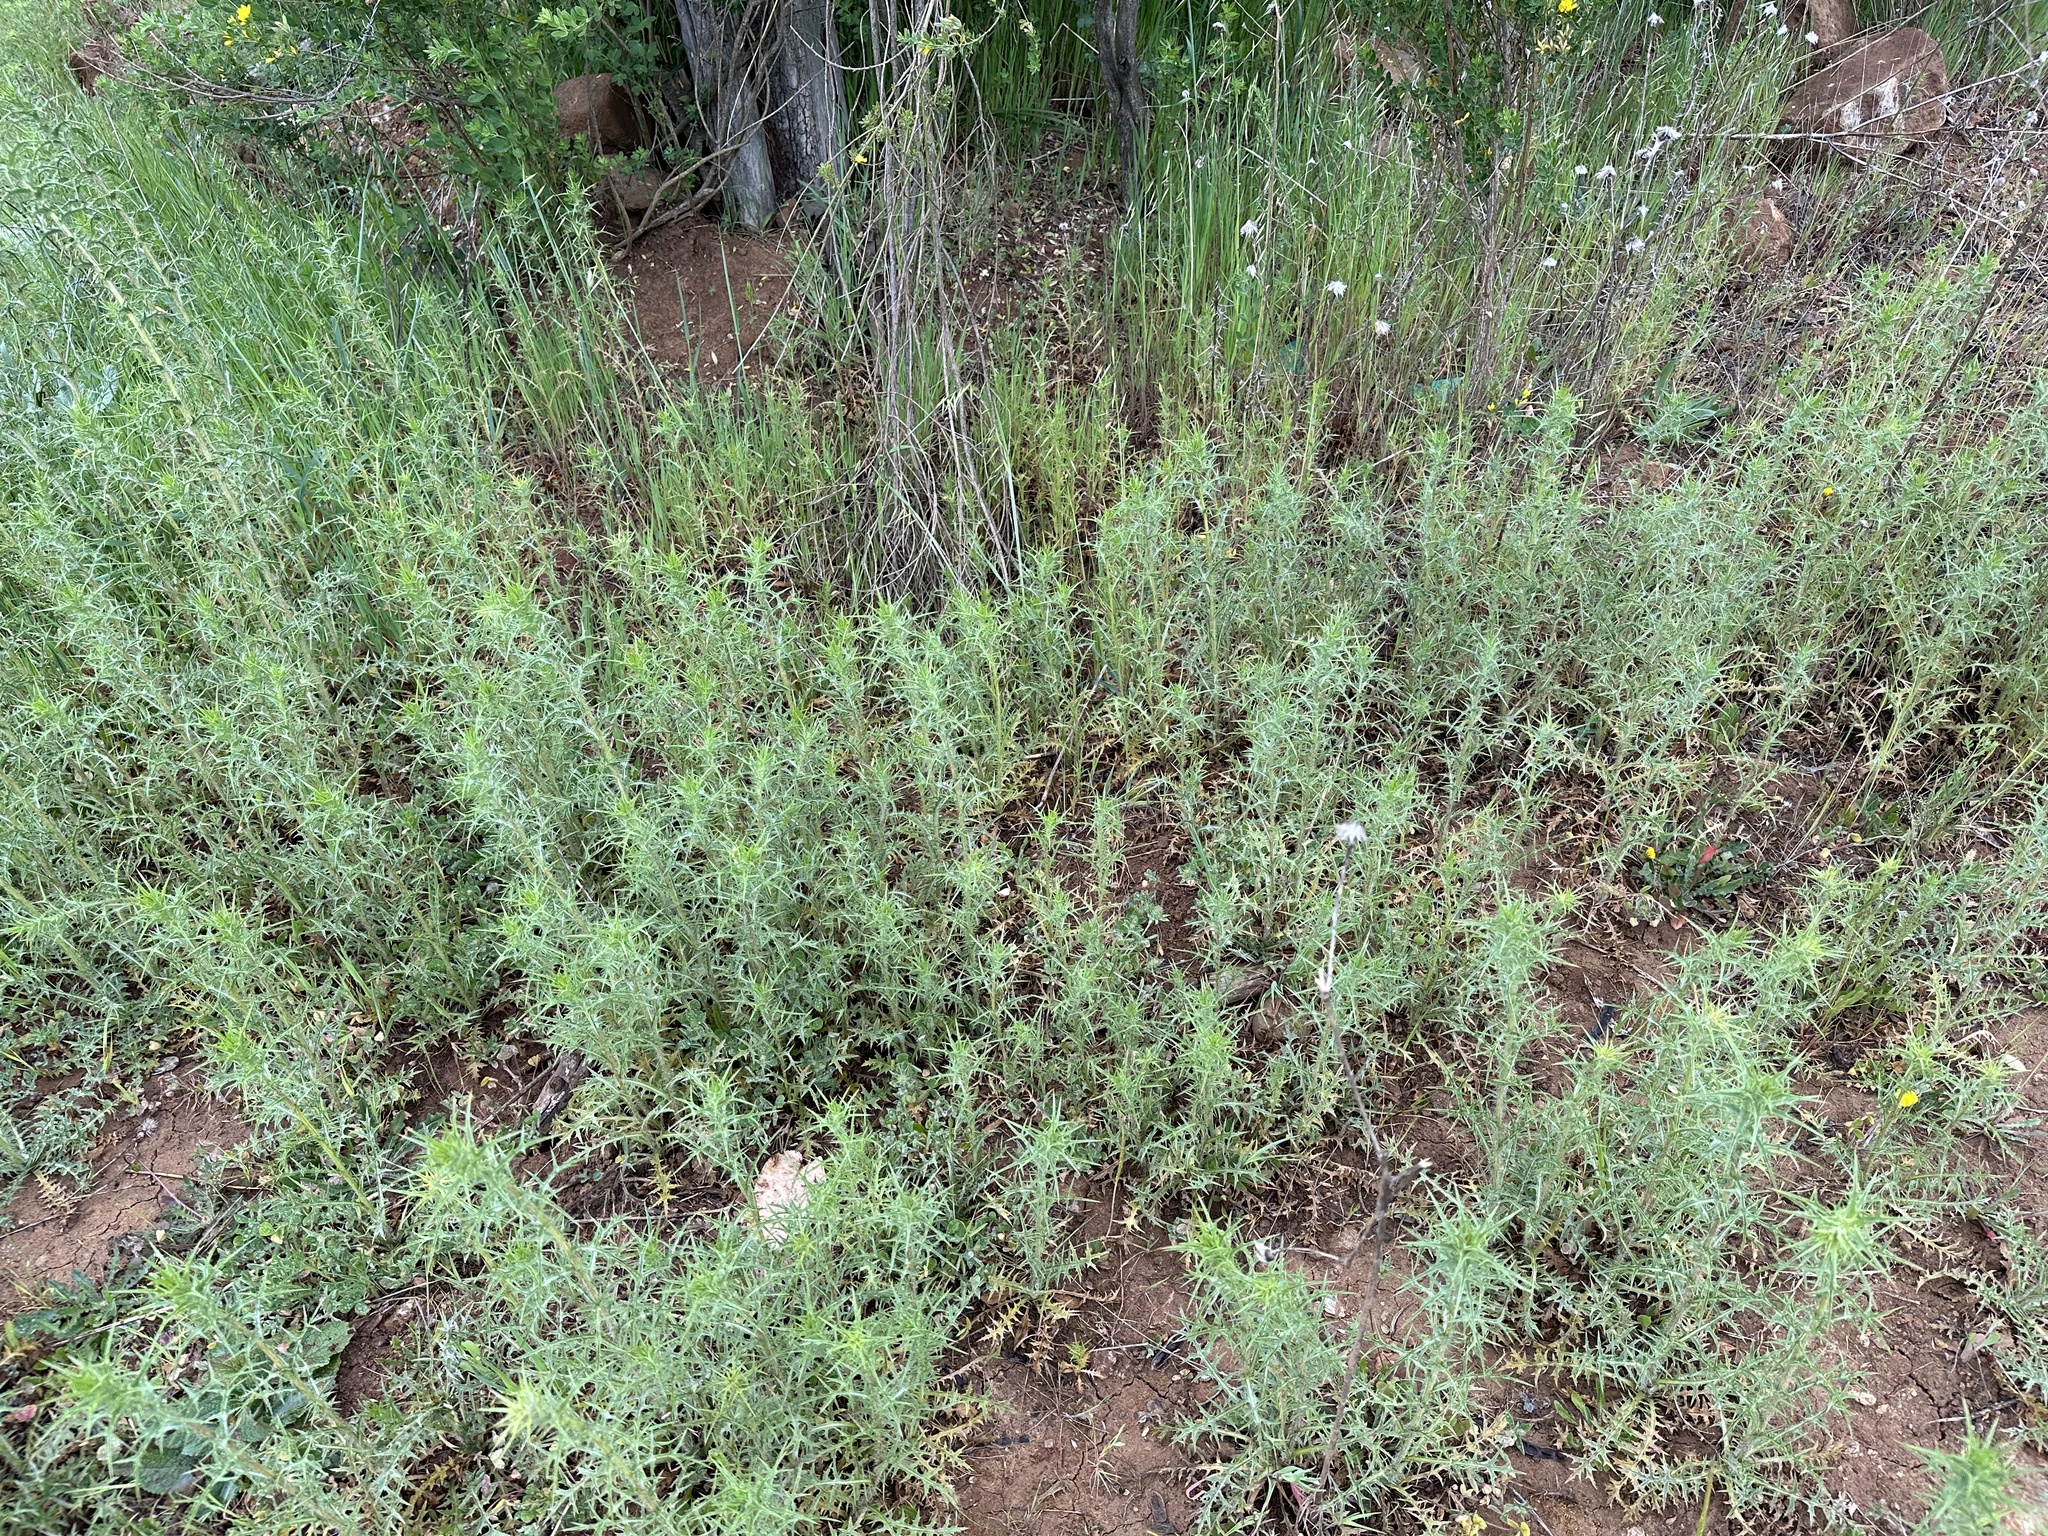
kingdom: Plantae
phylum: Tracheophyta
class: Magnoliopsida
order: Asterales
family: Asteraceae
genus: Carthamus
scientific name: Carthamus lanatus
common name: Downy safflower
